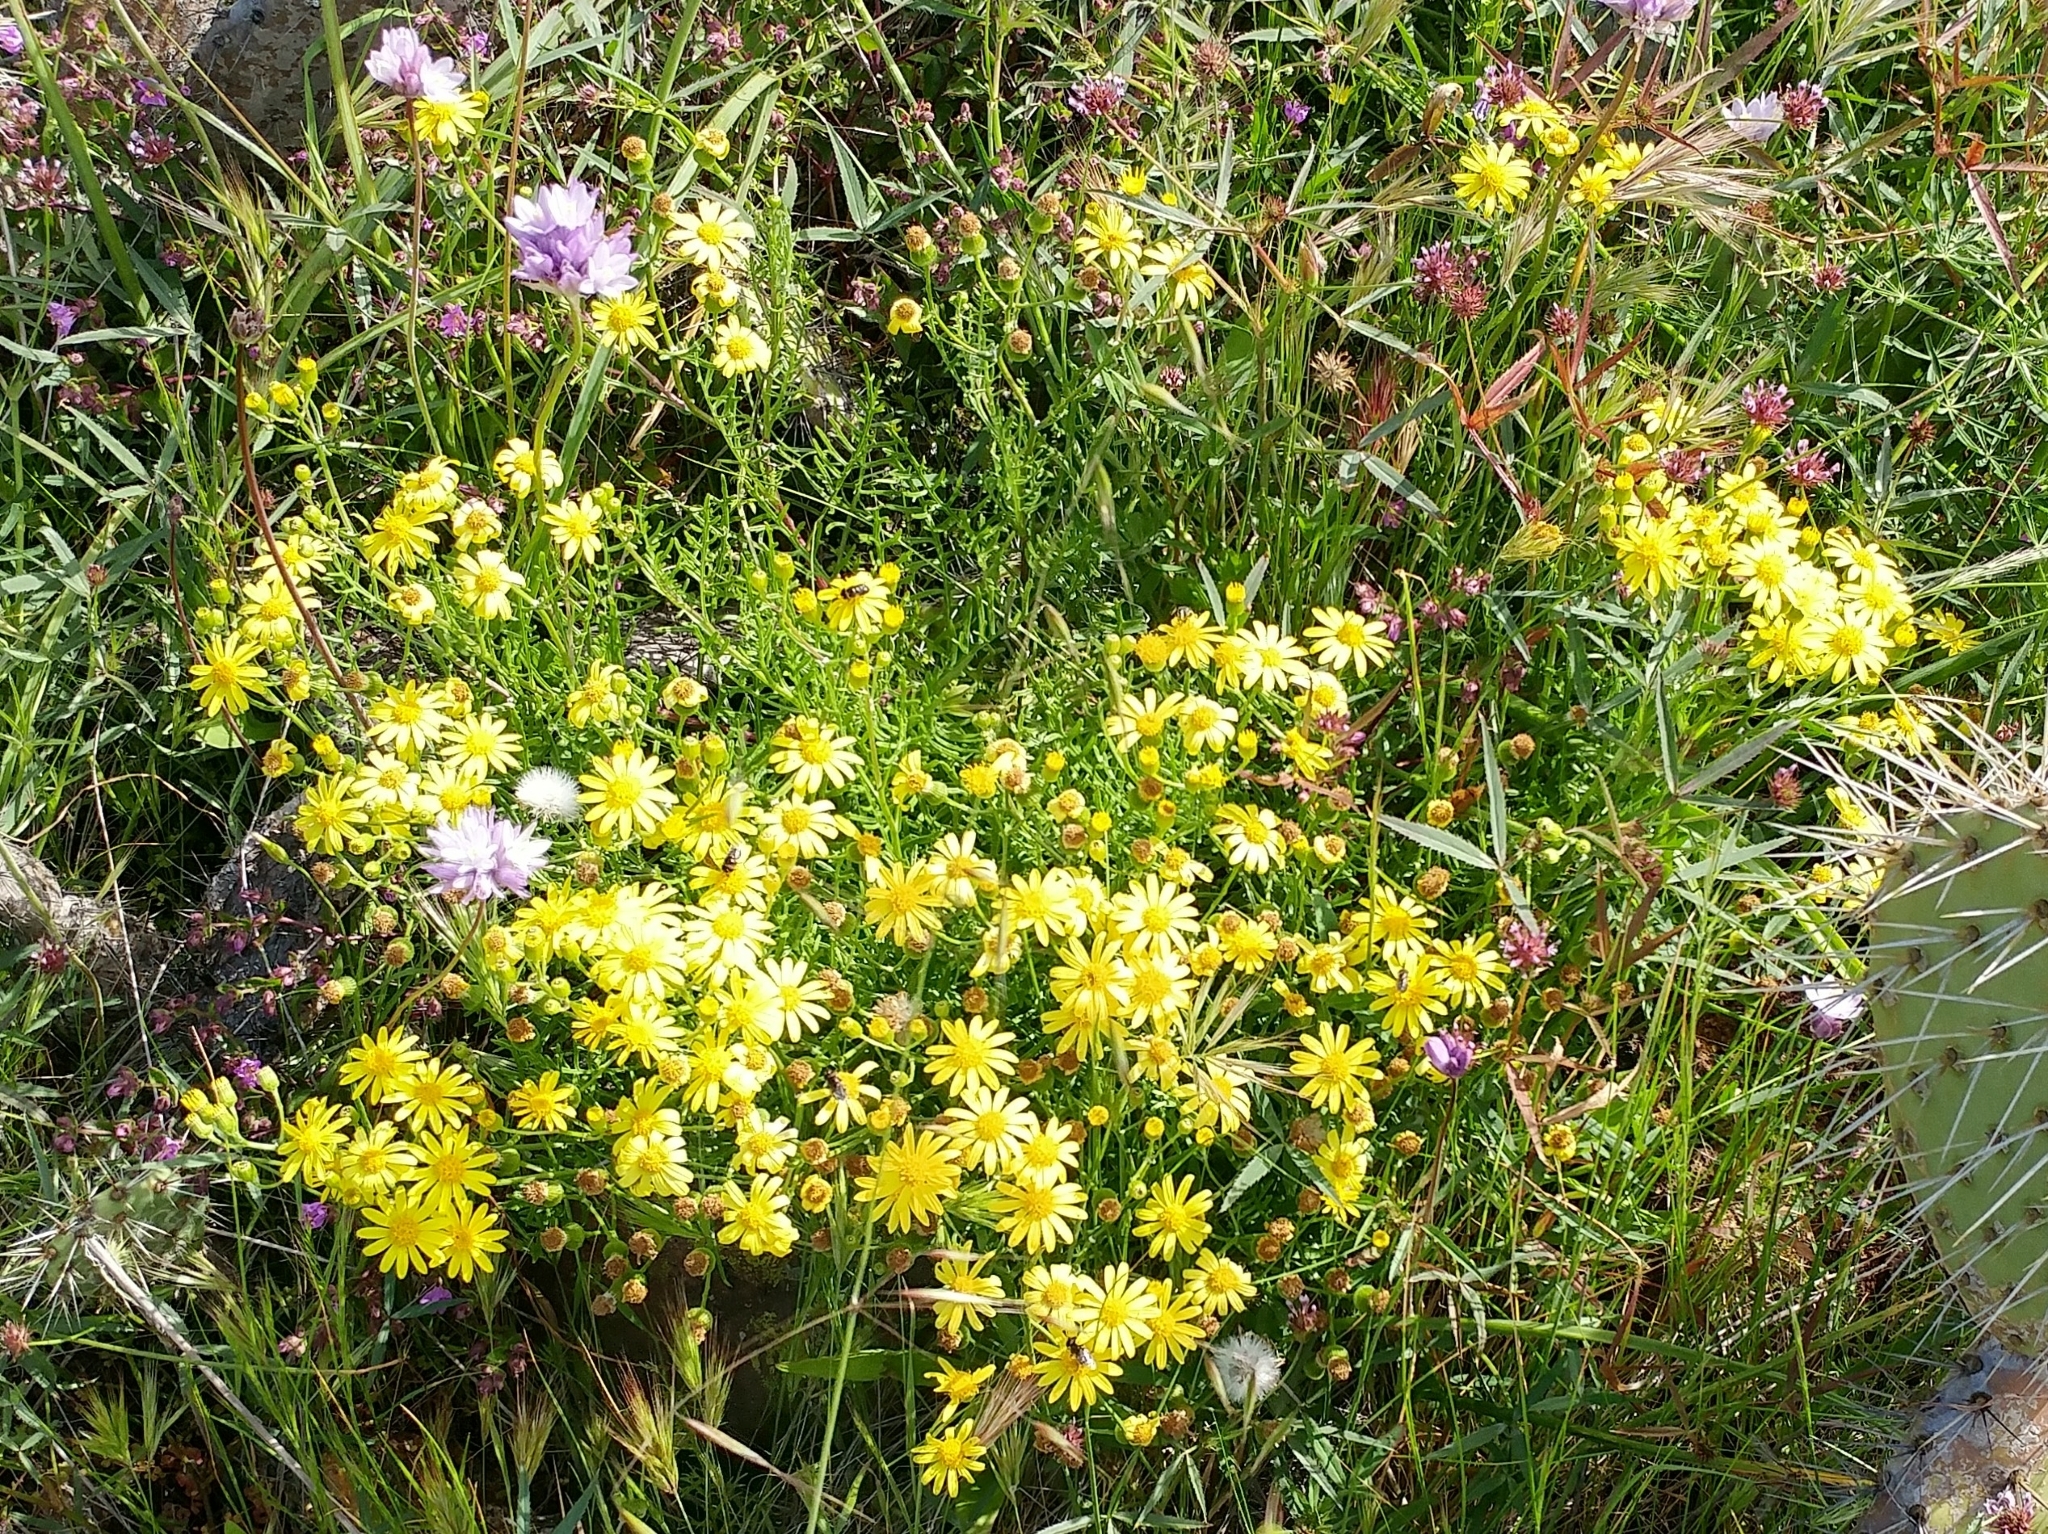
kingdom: Plantae
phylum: Tracheophyta
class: Magnoliopsida
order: Asterales
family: Asteraceae
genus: Senecio
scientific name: Senecio lyonii
